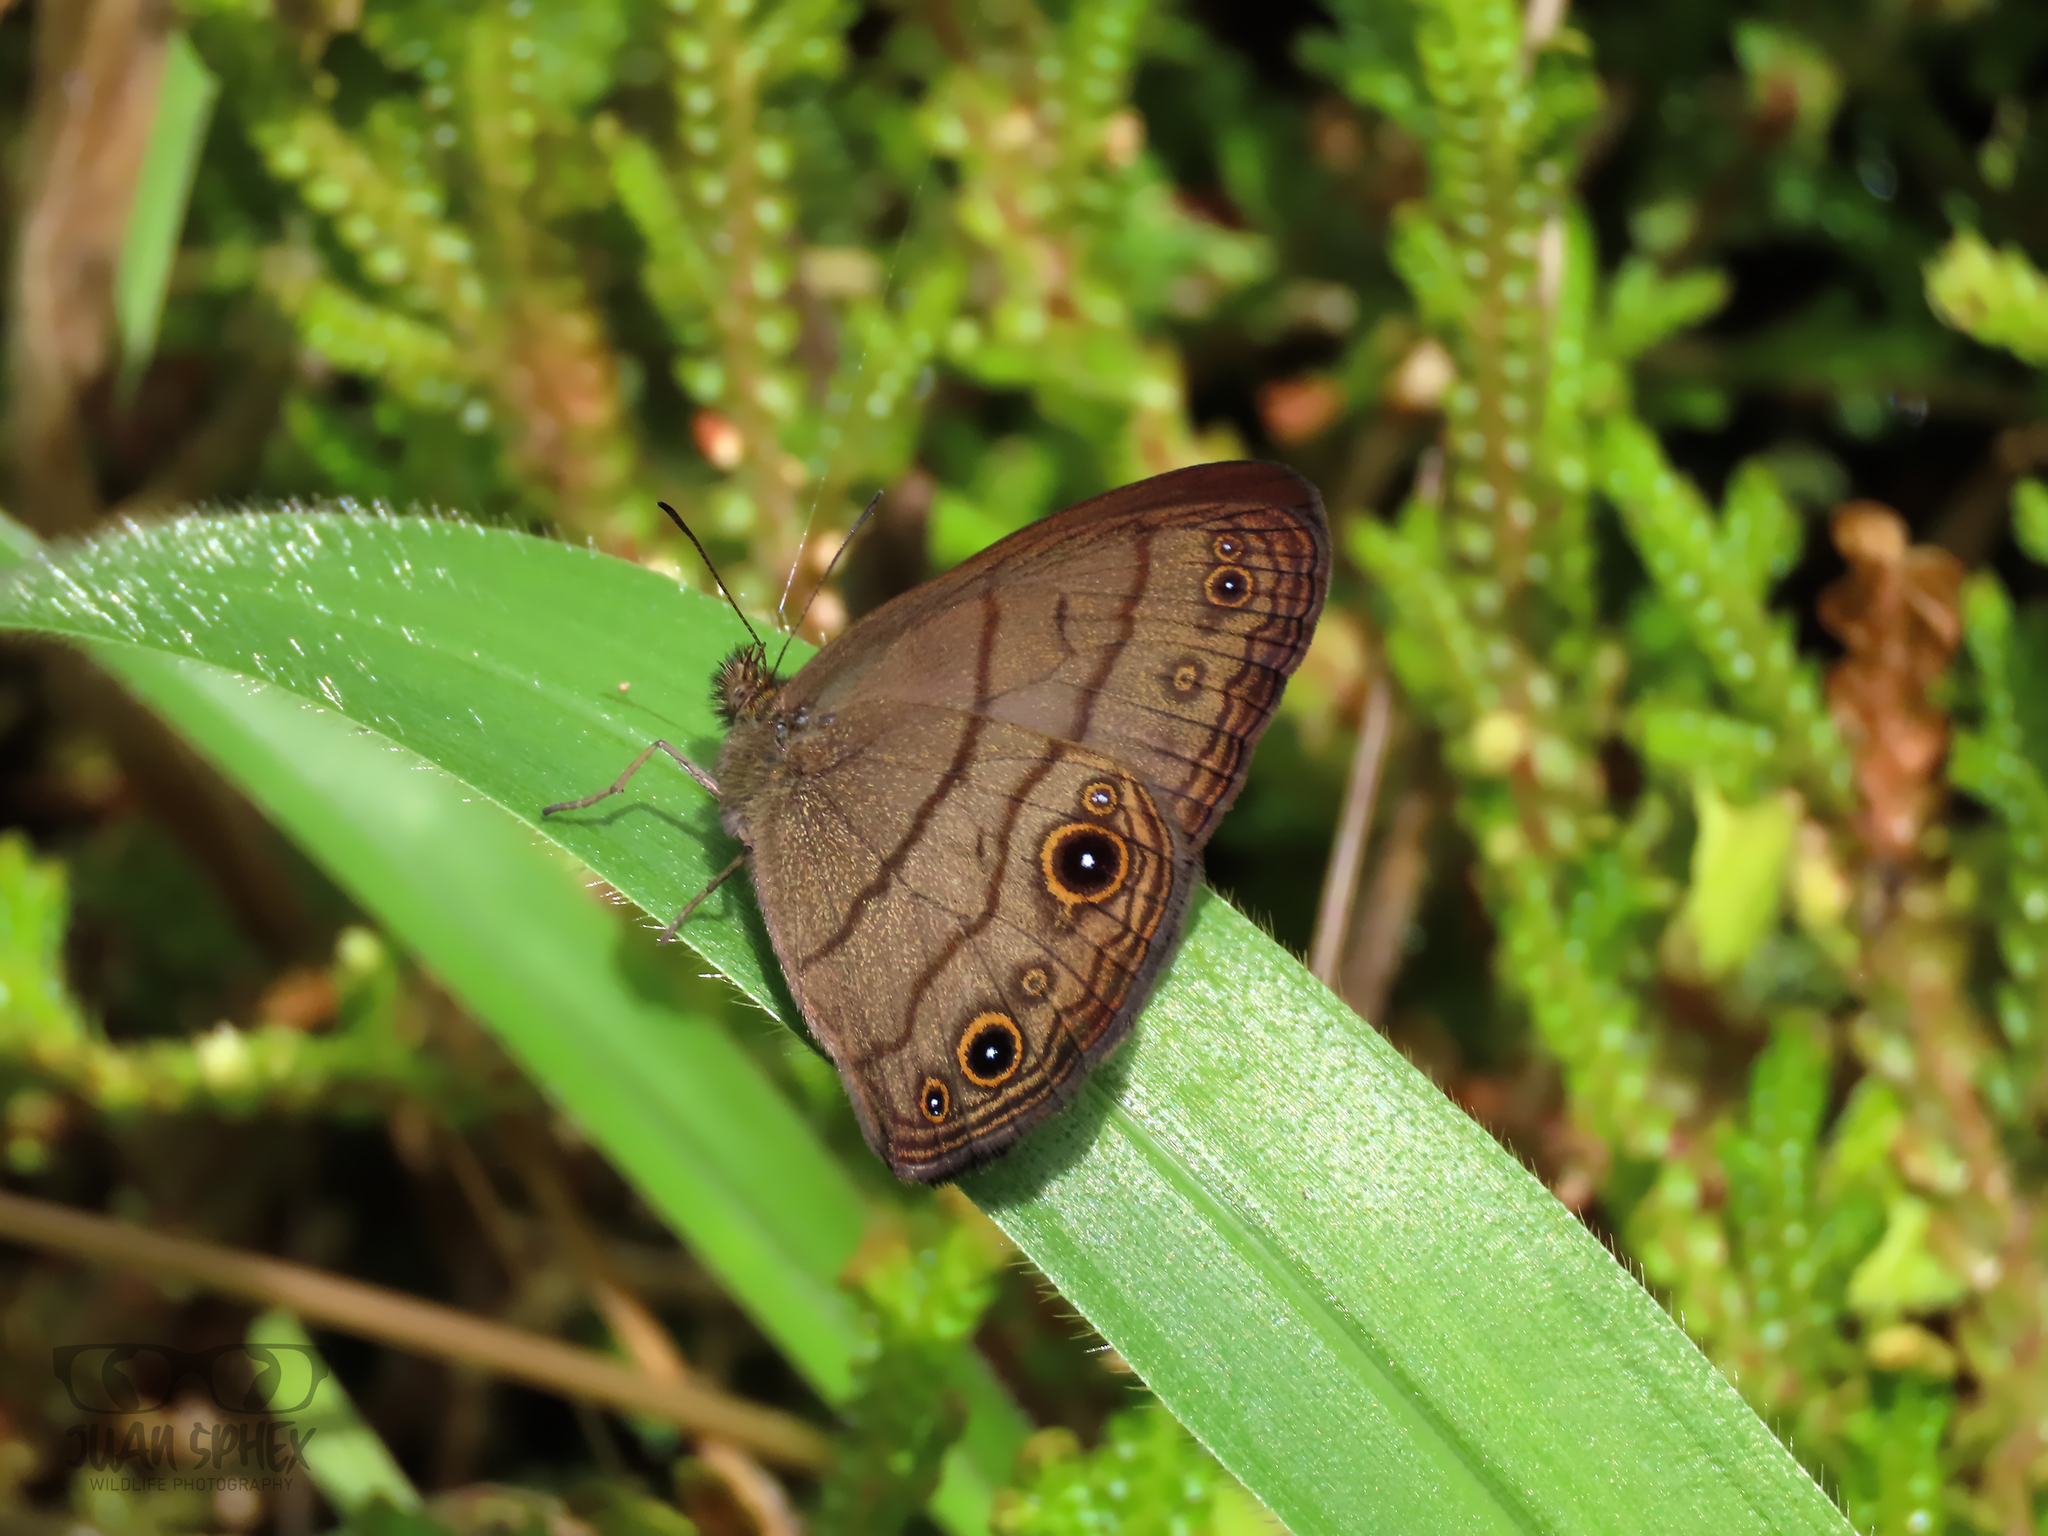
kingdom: Animalia
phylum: Arthropoda
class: Insecta
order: Lepidoptera
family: Nymphalidae
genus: Hermeuptychia
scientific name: Hermeuptychia harmonia
